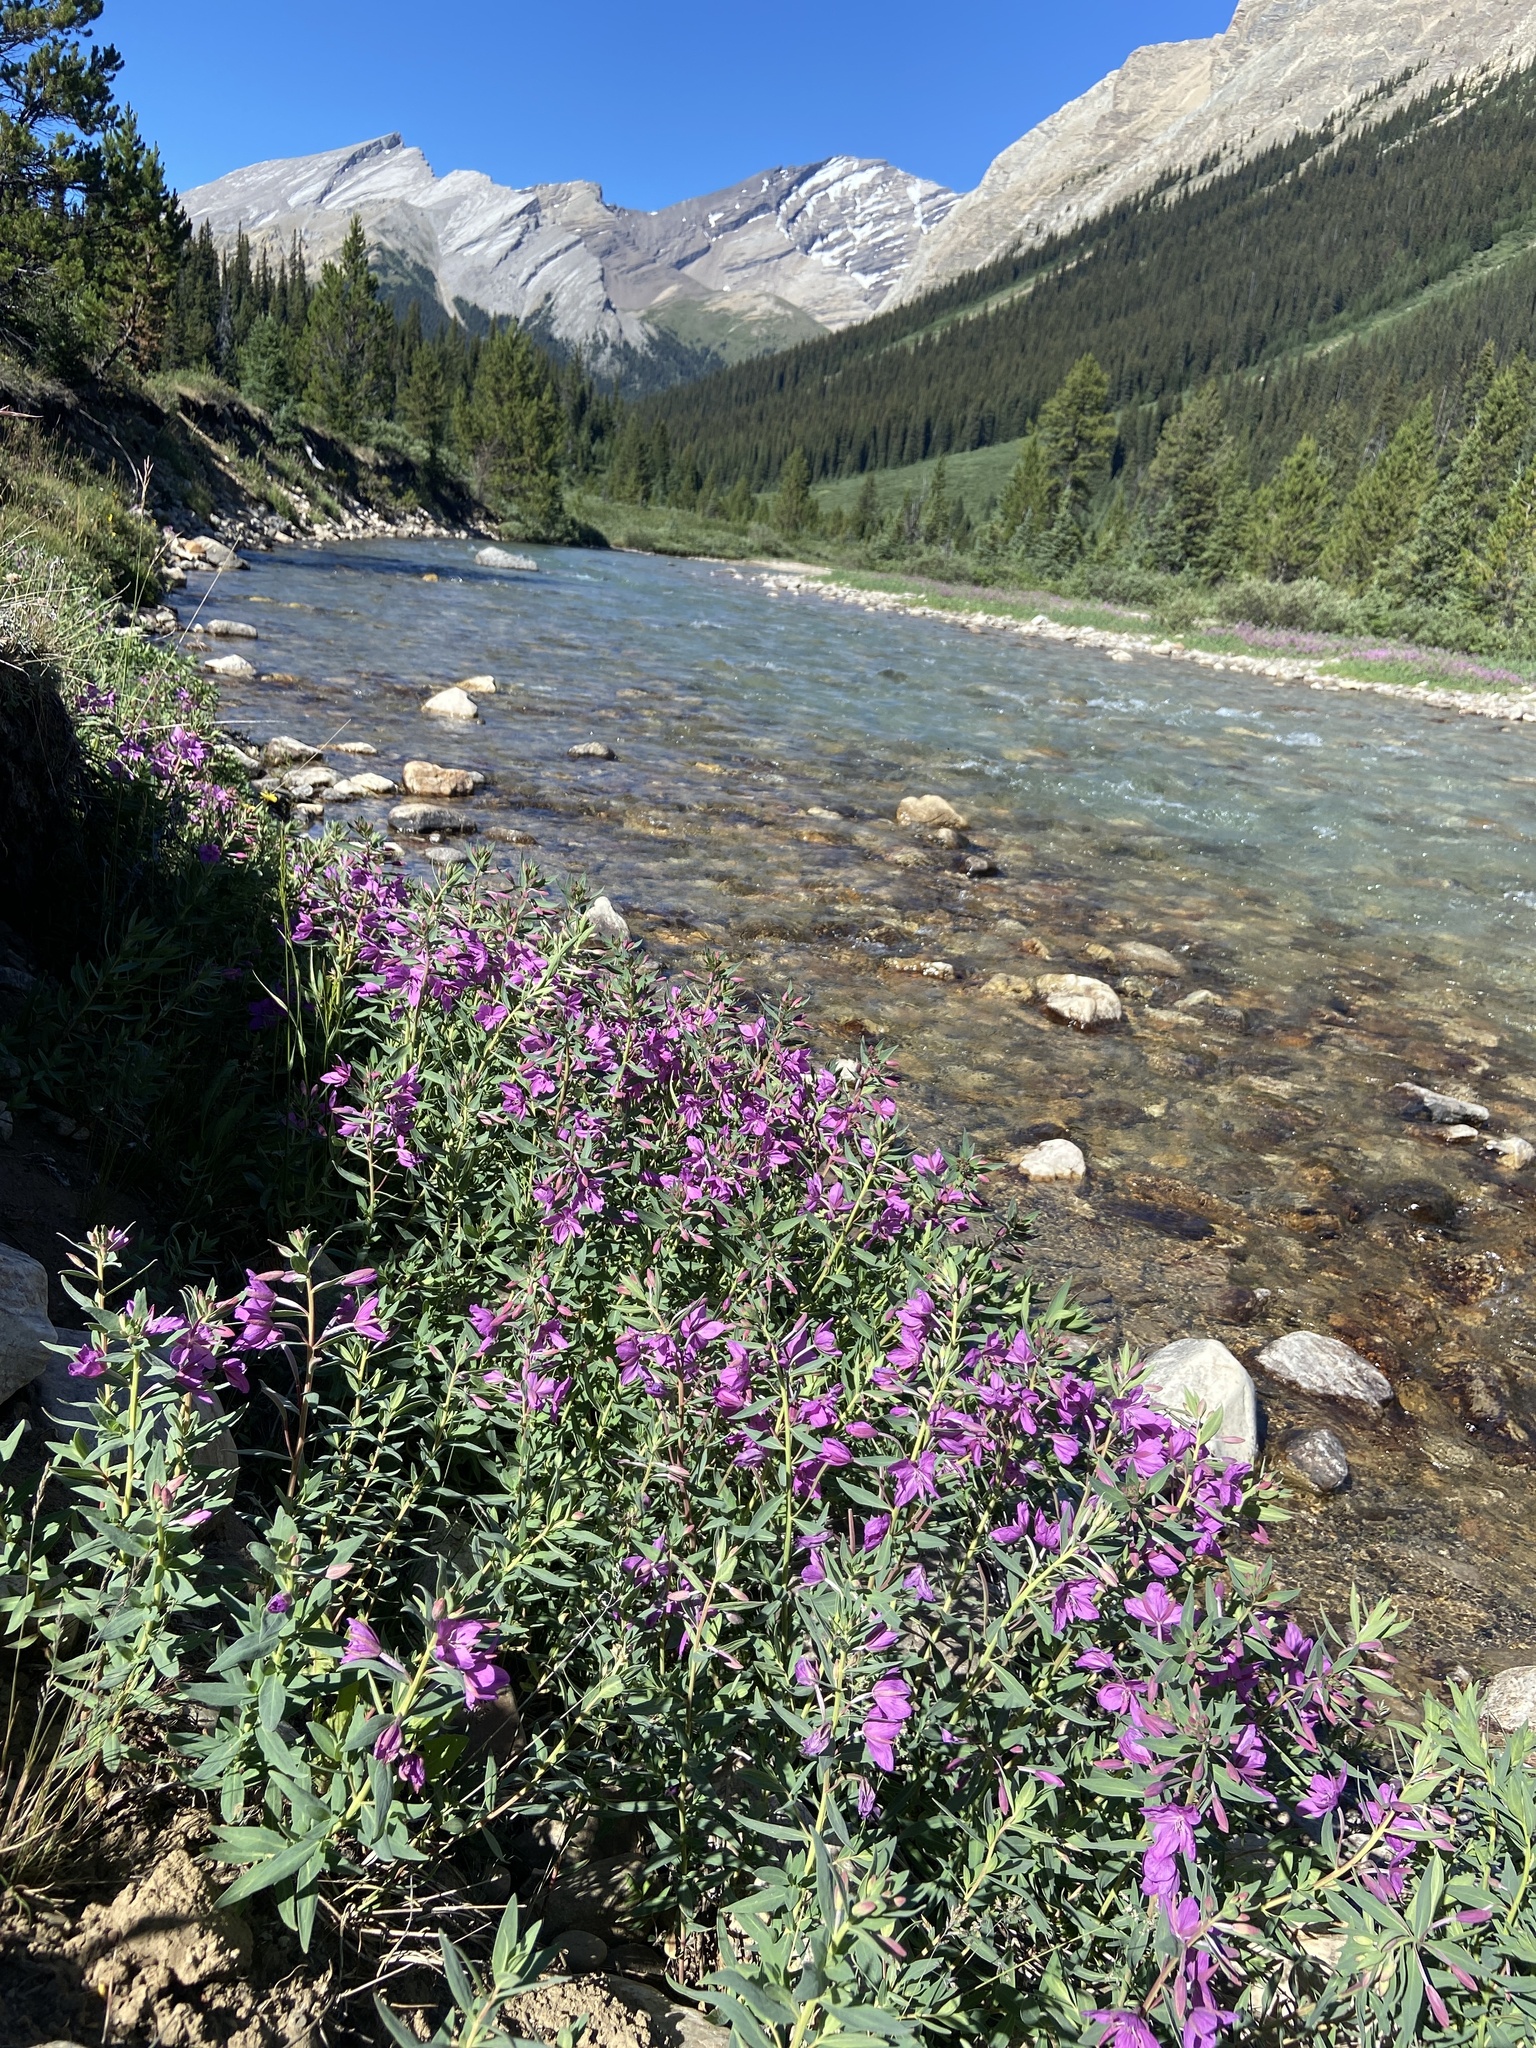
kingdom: Plantae
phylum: Tracheophyta
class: Magnoliopsida
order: Myrtales
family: Onagraceae
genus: Chamaenerion
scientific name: Chamaenerion latifolium
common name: Dwarf fireweed
